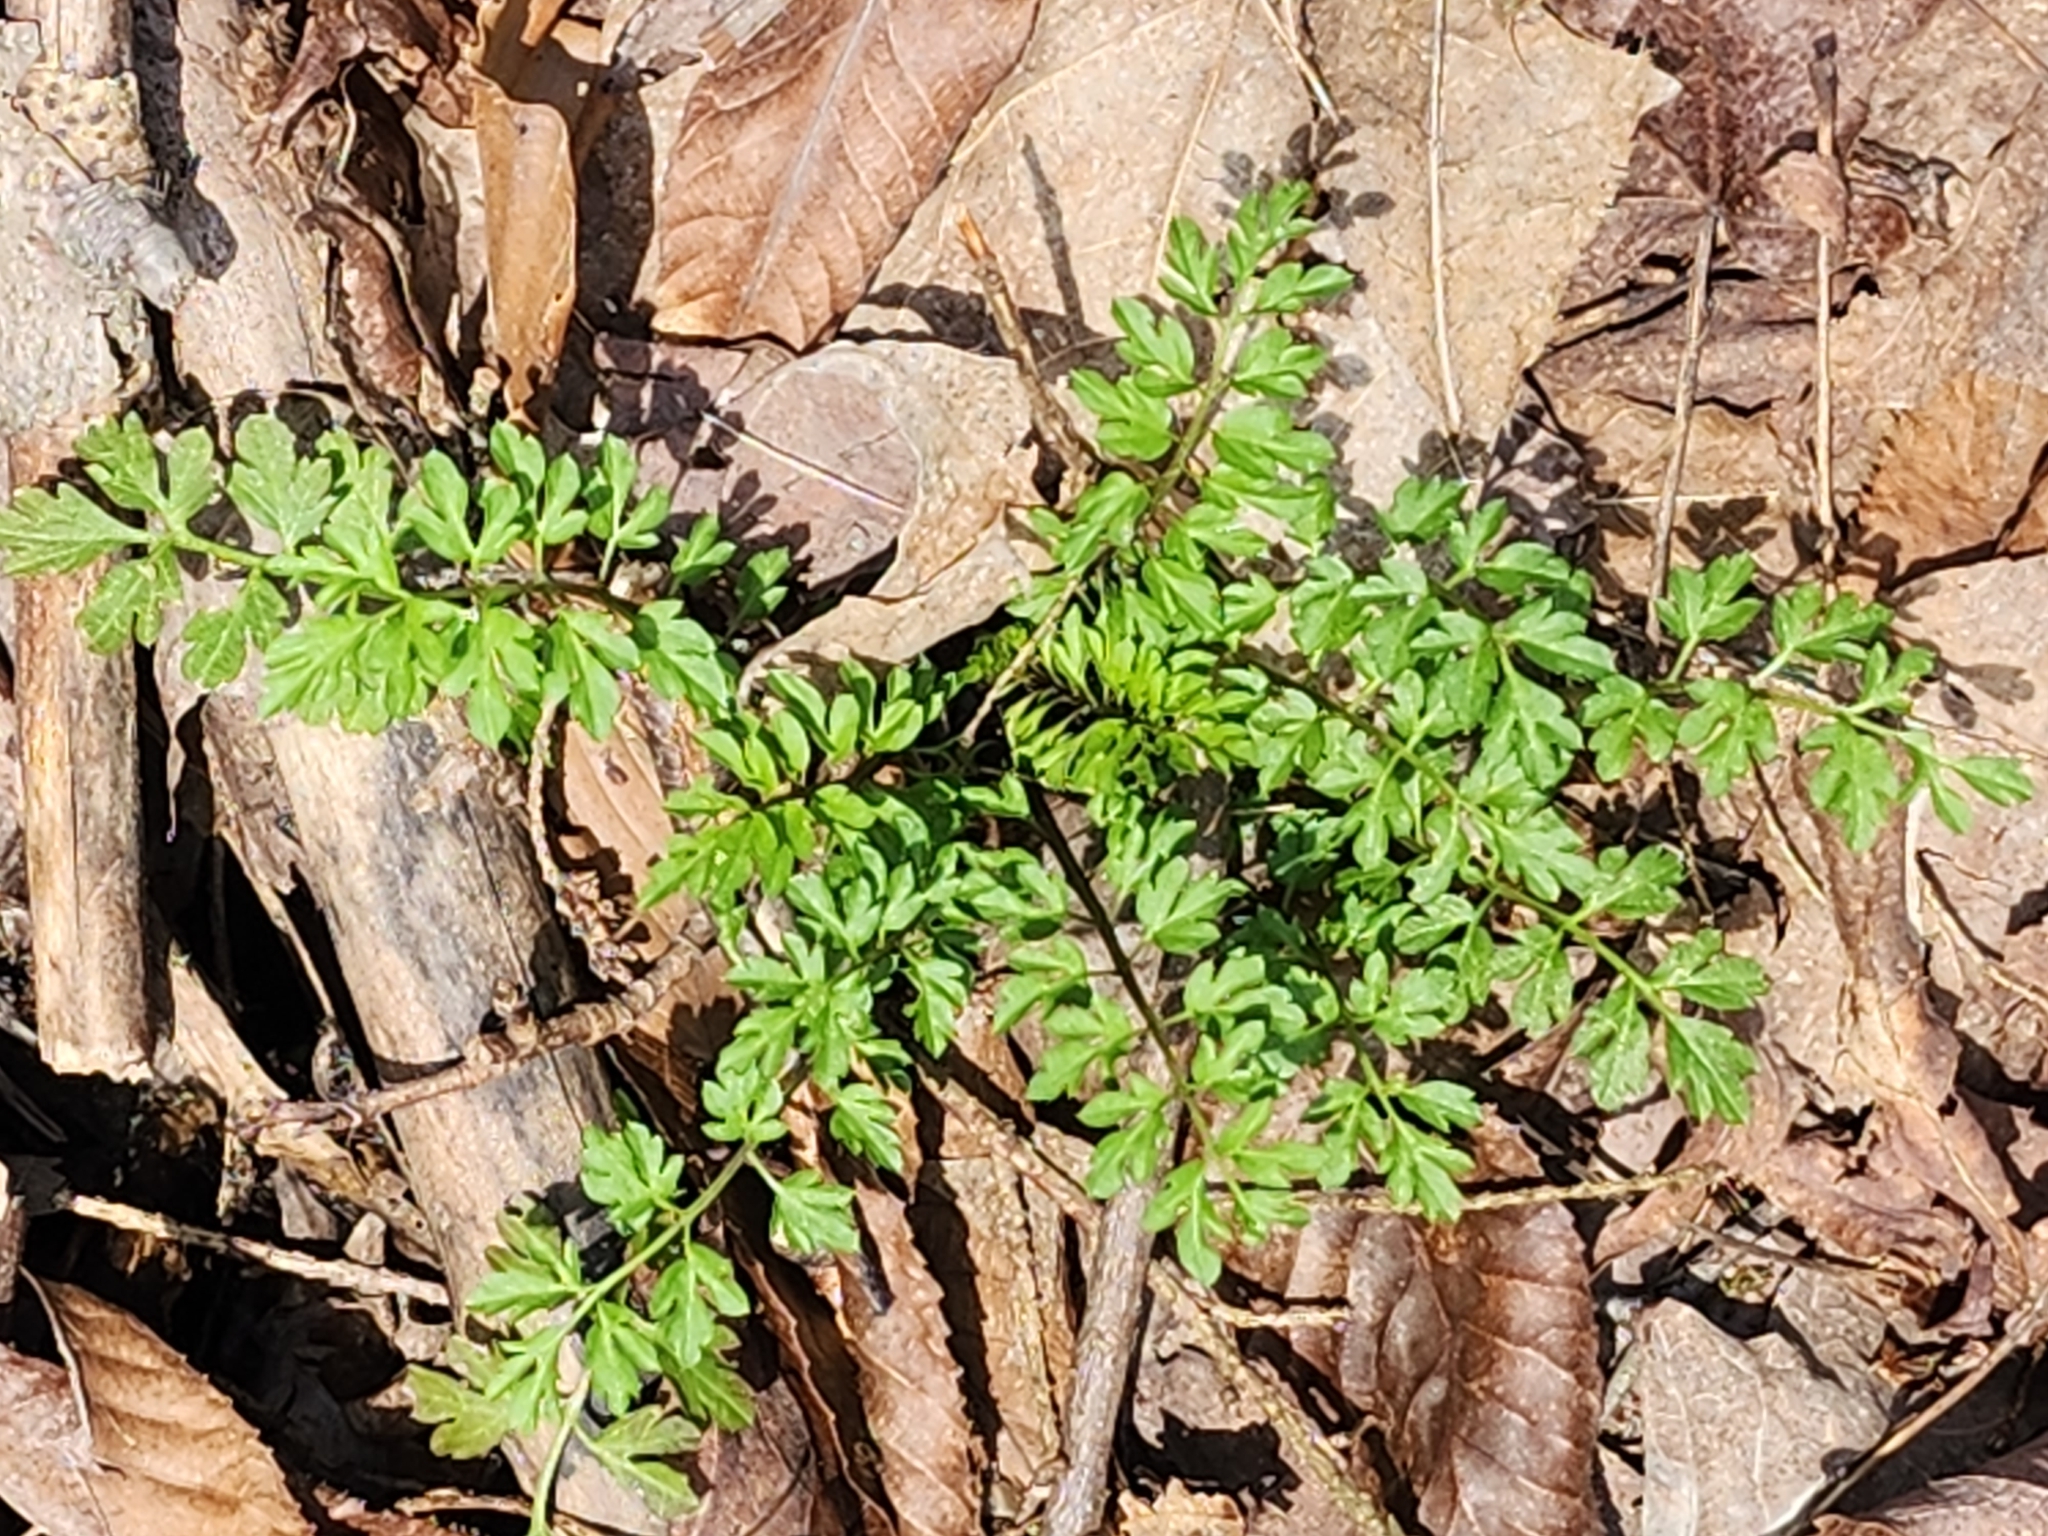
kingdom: Plantae
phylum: Tracheophyta
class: Magnoliopsida
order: Brassicales
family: Brassicaceae
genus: Cardamine
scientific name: Cardamine impatiens
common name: Narrow-leaved bitter-cress
